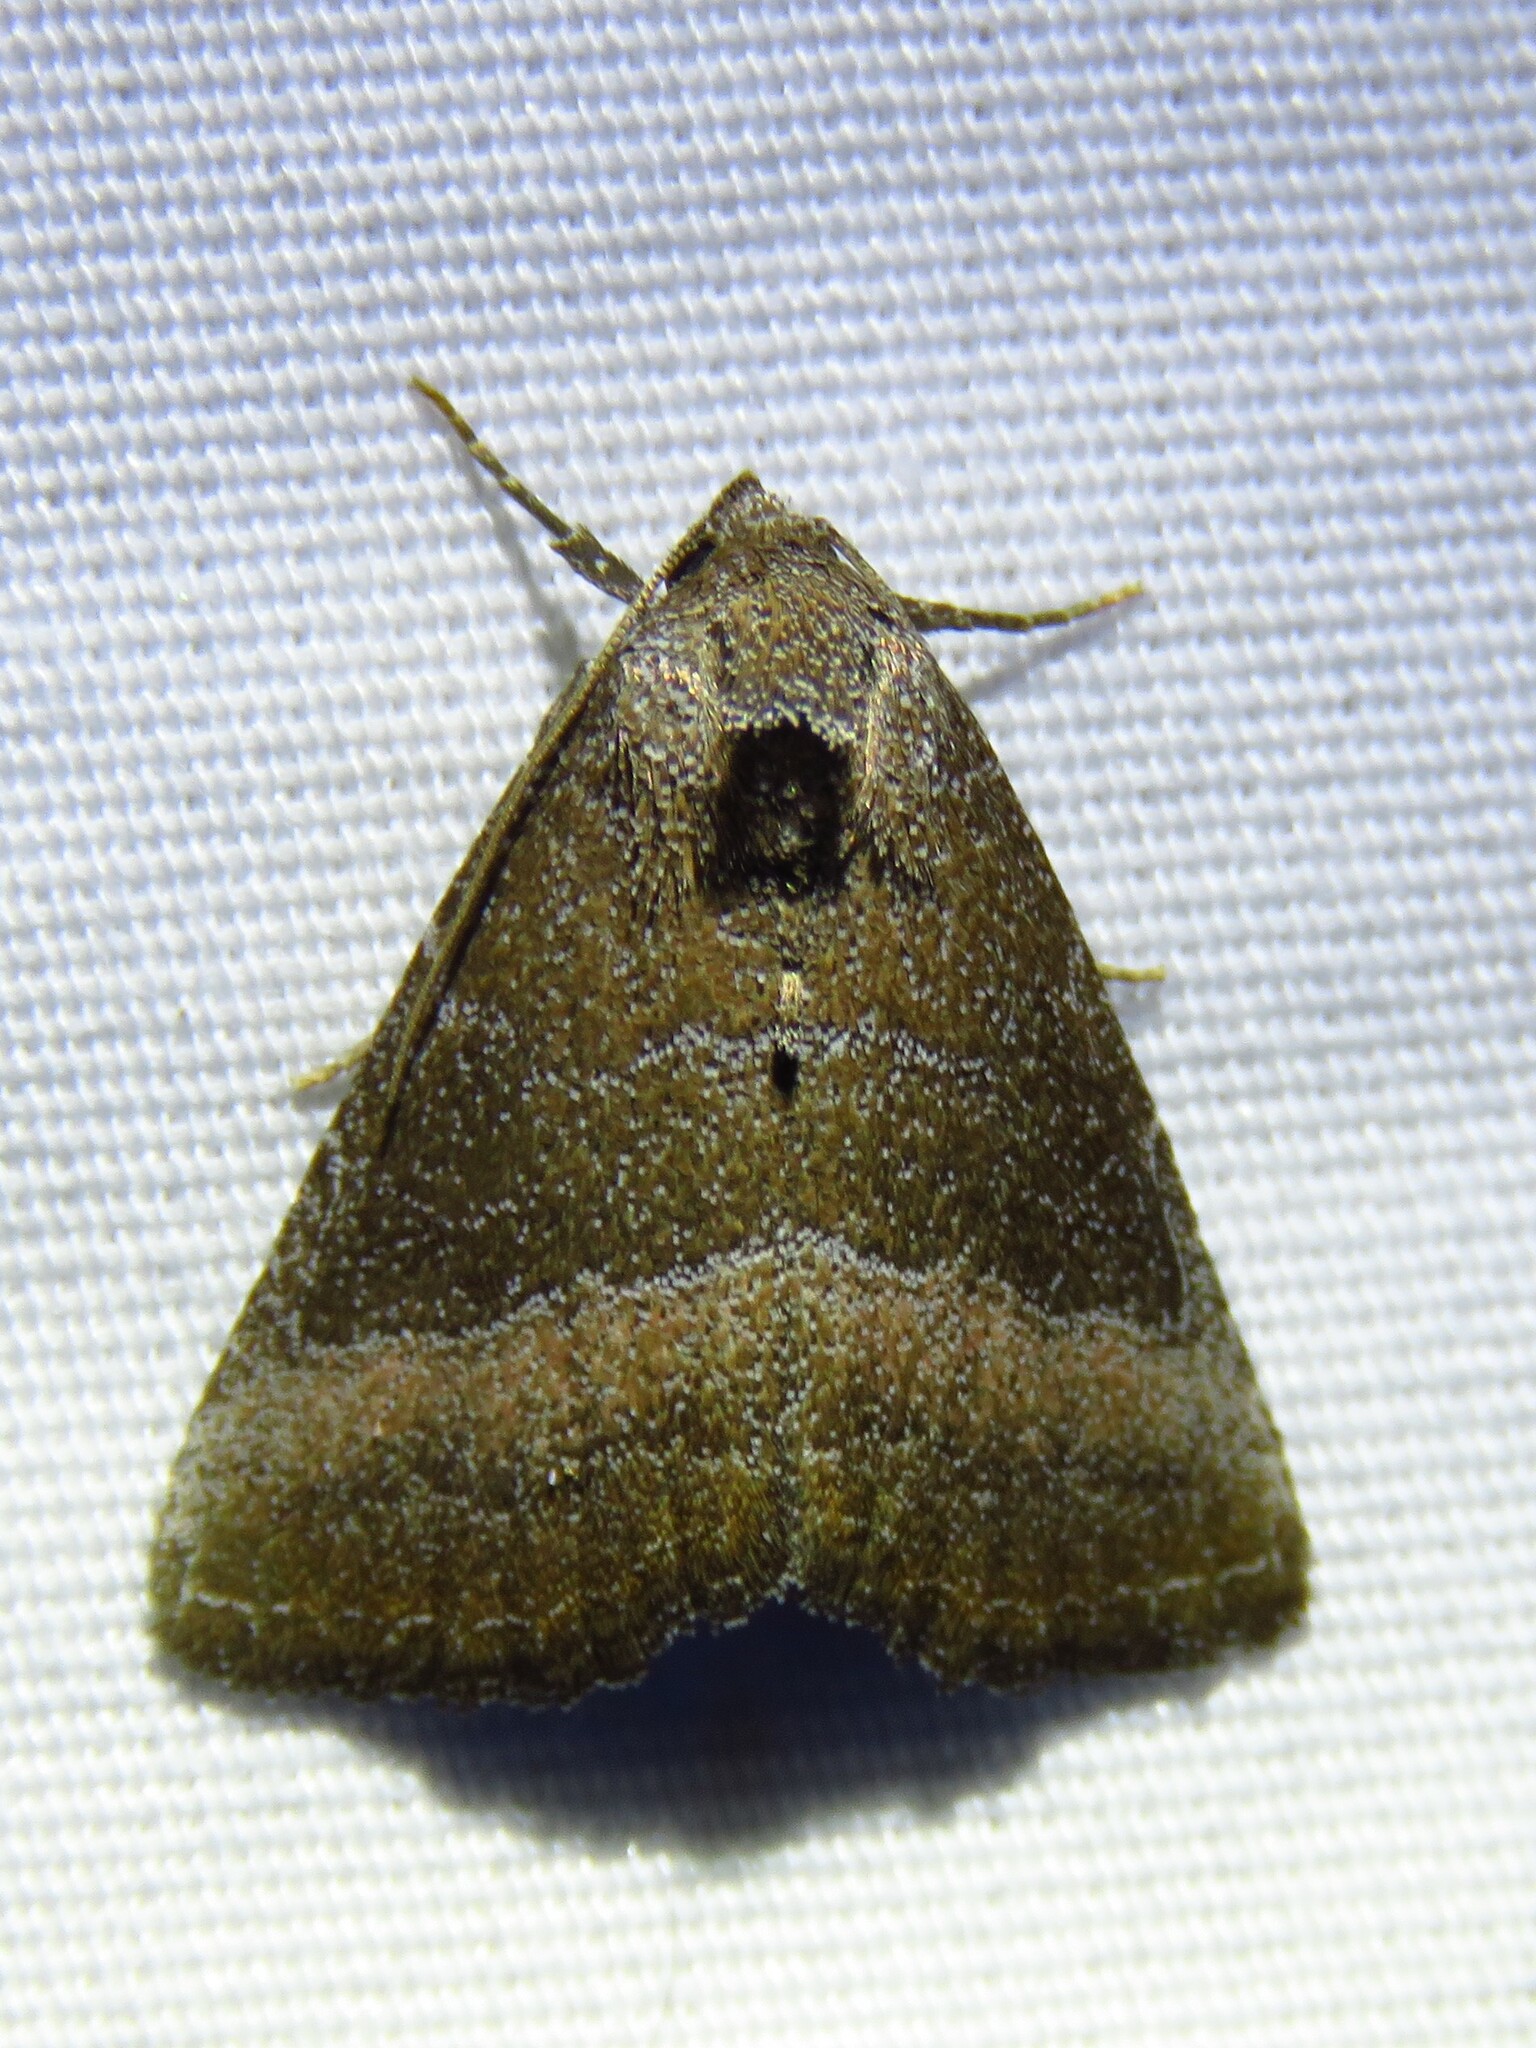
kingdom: Animalia
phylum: Arthropoda
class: Insecta
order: Lepidoptera
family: Noctuidae
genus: Ogdoconta
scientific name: Ogdoconta cinereola
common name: Common pinkband
